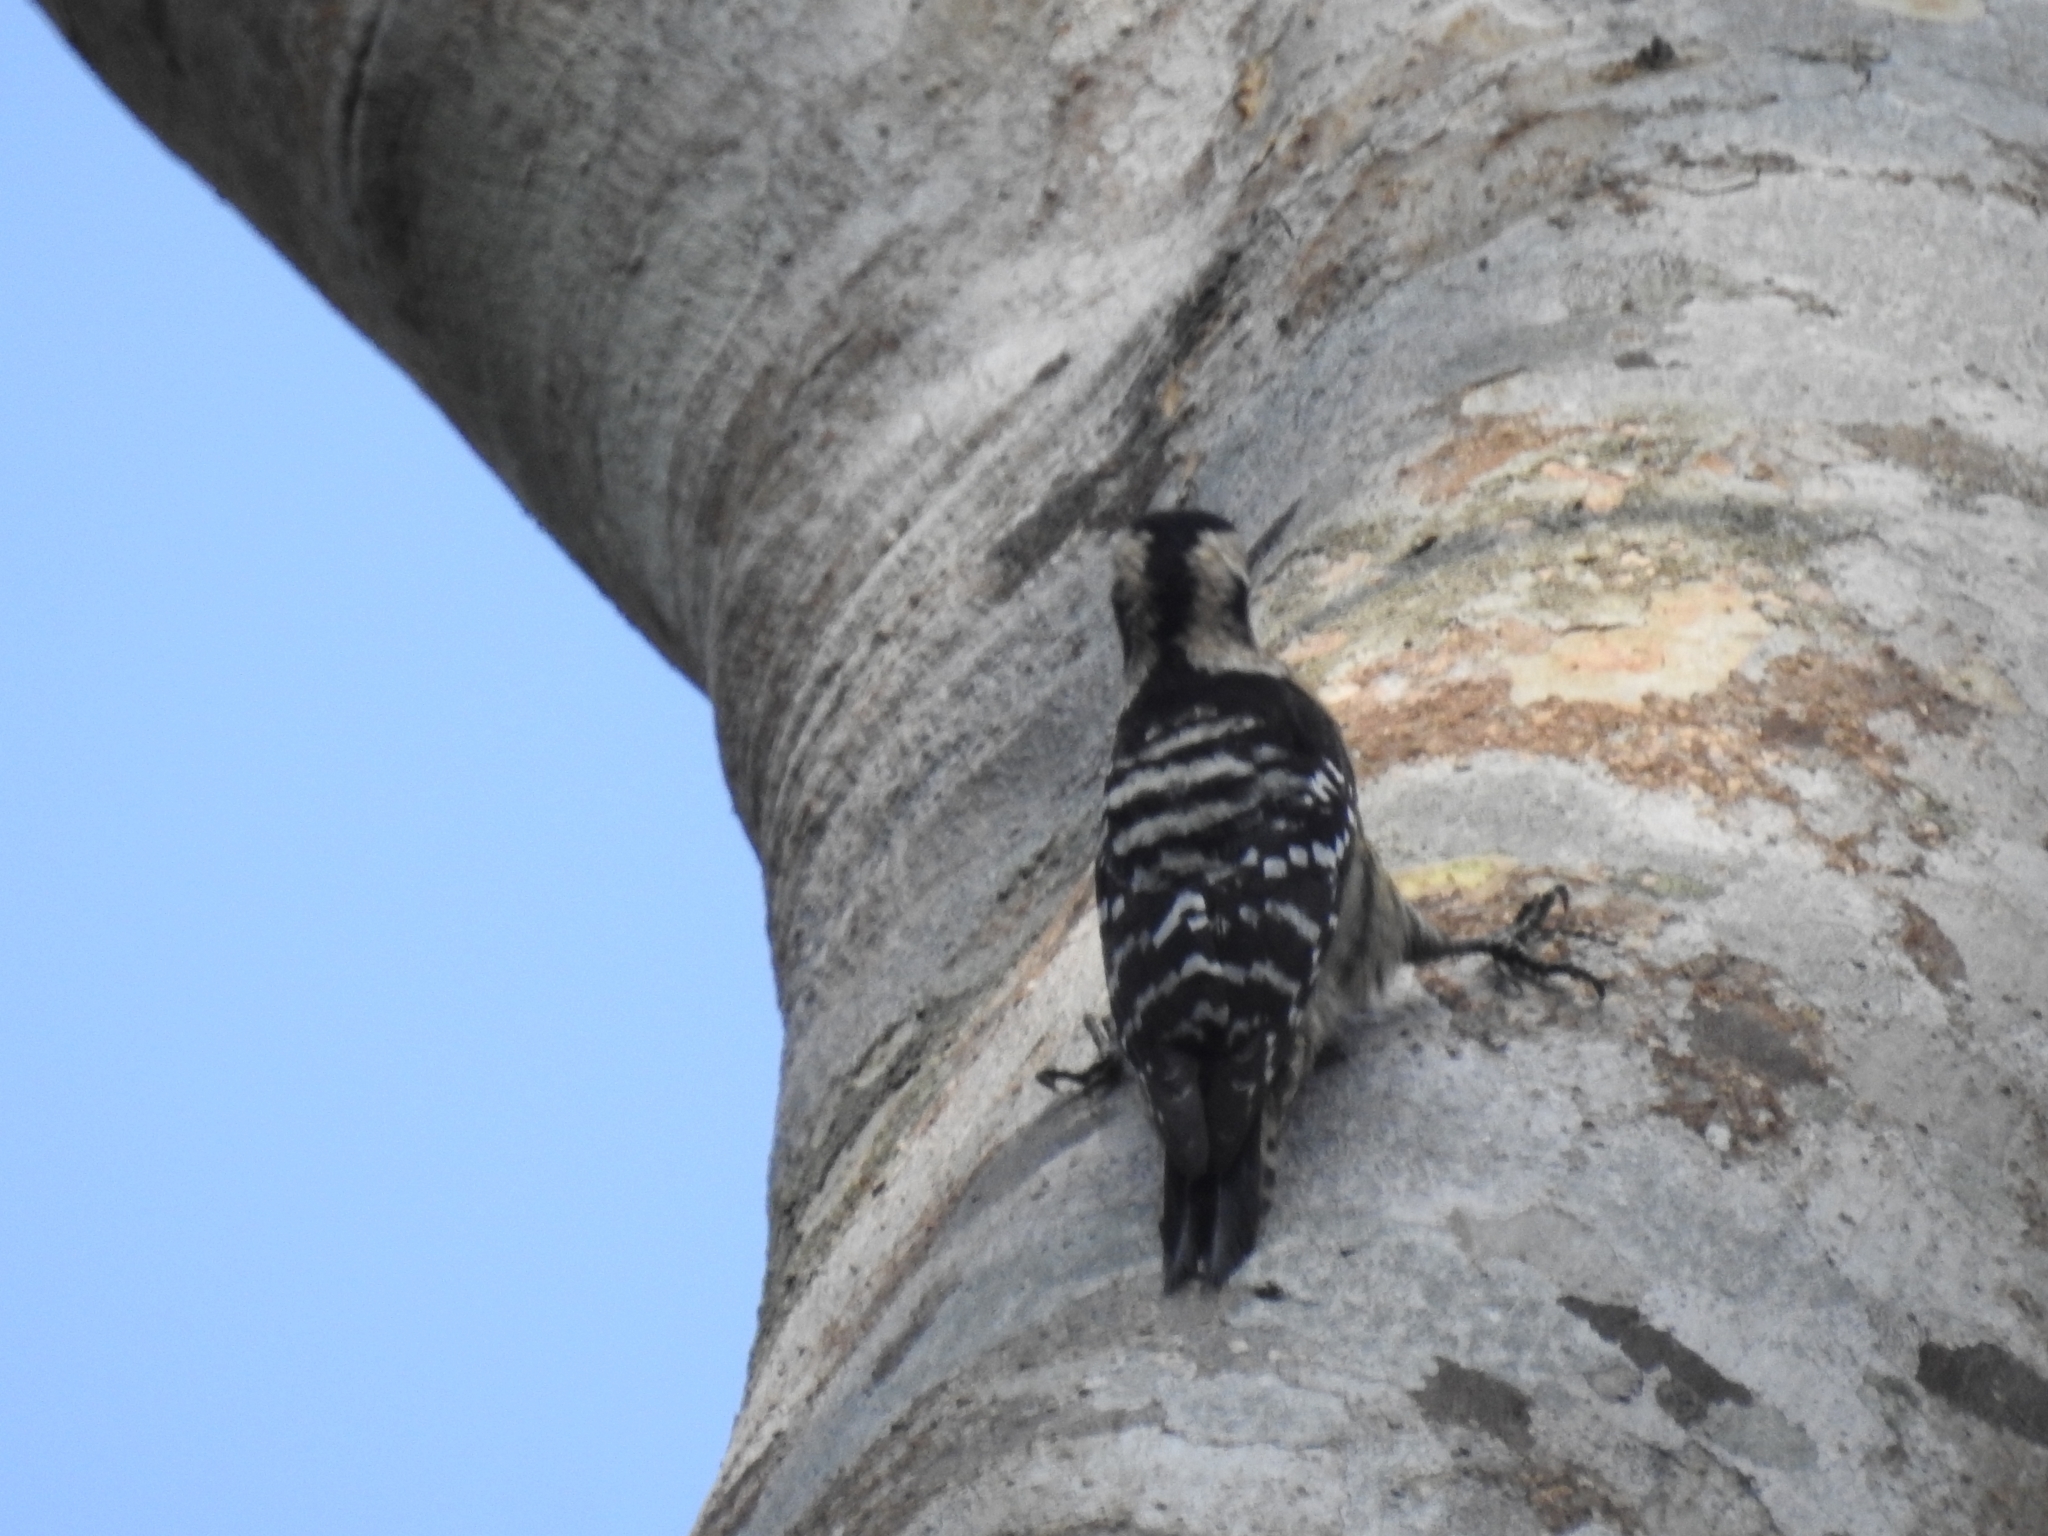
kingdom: Animalia
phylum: Chordata
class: Aves
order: Piciformes
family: Picidae
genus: Yungipicus
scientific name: Yungipicus canicapillus
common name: Grey-capped pygmy woodpecker
